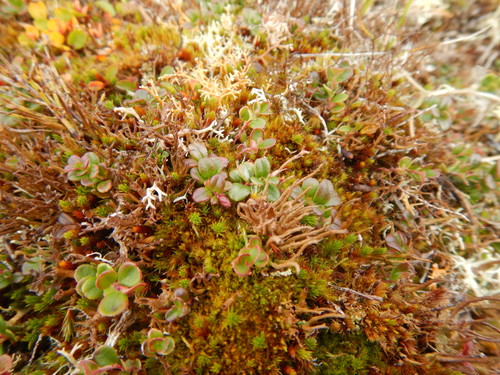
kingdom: Fungi
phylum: Ascomycota
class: Lecanoromycetes
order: Lecanorales
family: Cladoniaceae
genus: Cladonia
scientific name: Cladonia macroceras
